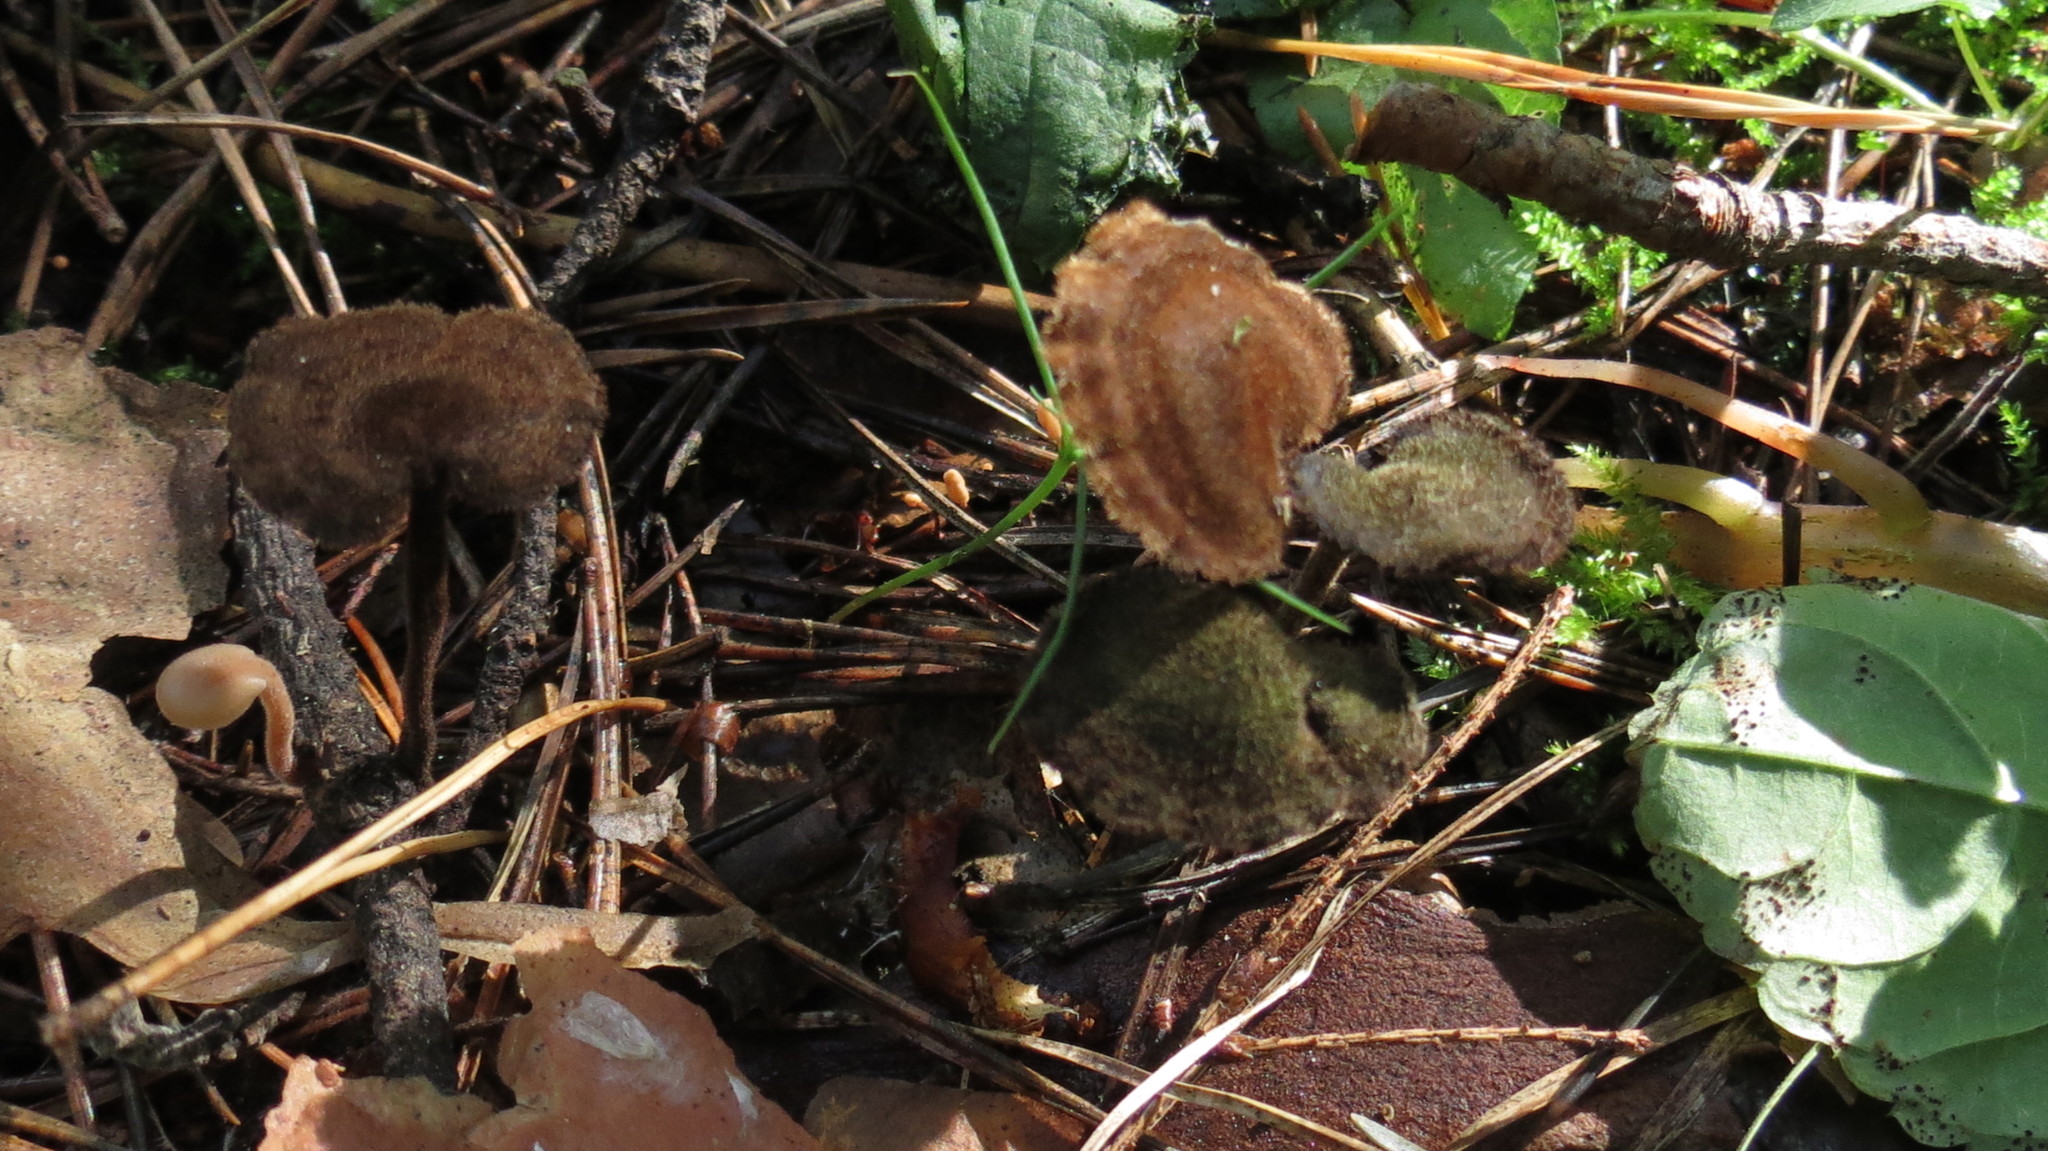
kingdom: Fungi
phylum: Basidiomycota
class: Agaricomycetes
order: Russulales
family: Auriscalpiaceae
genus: Auriscalpium
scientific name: Auriscalpium vulgare
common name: Earpick fungus
